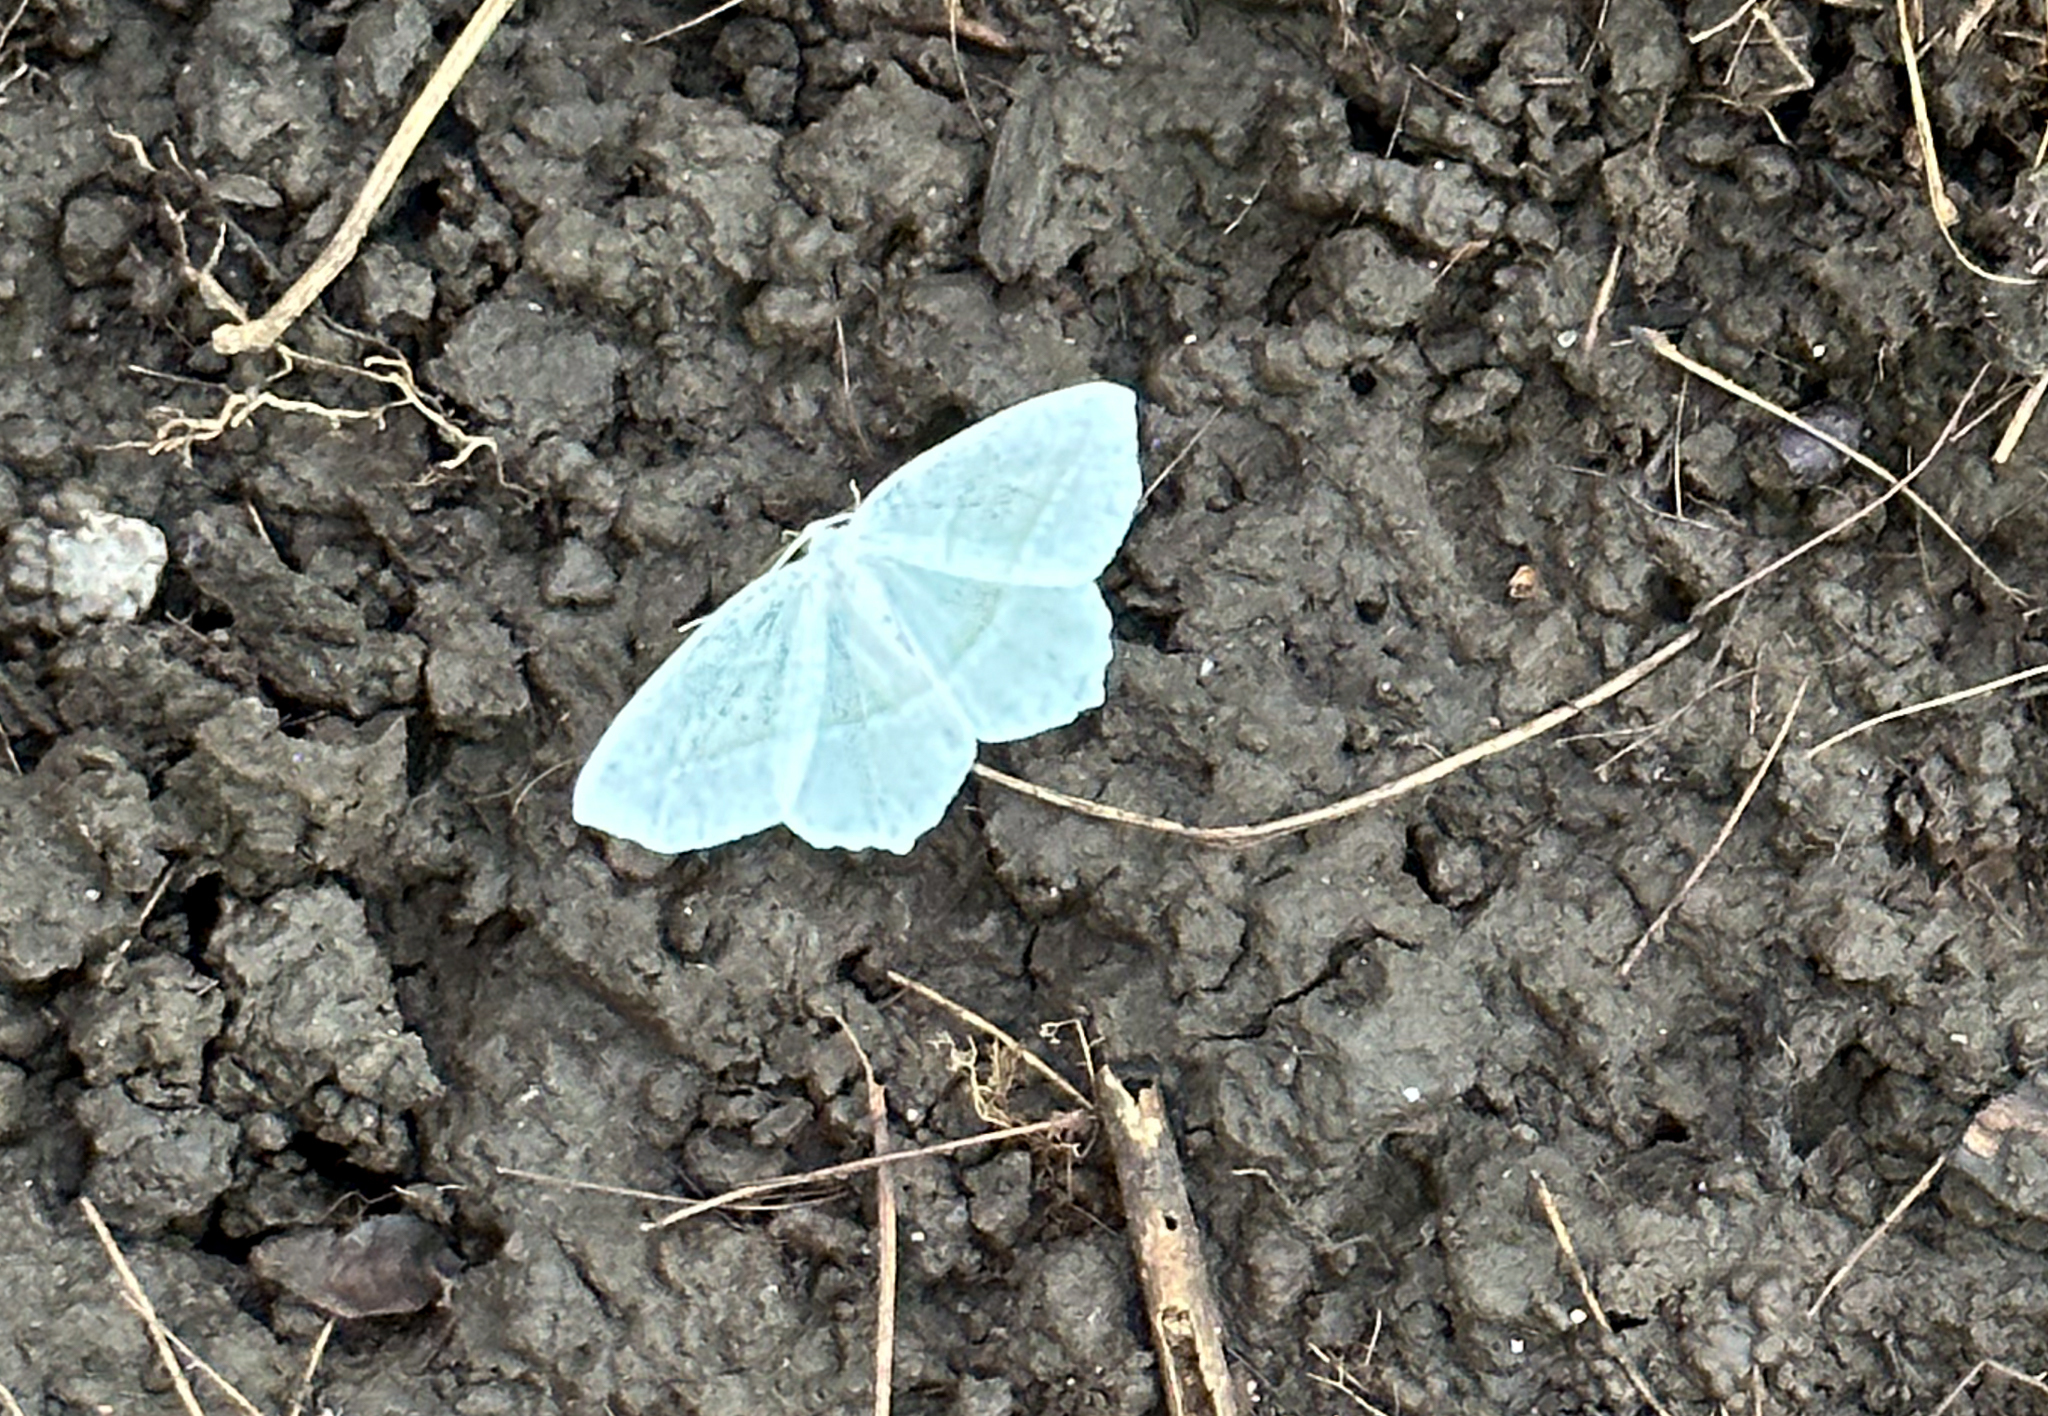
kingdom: Animalia
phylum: Arthropoda
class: Insecta
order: Lepidoptera
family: Geometridae
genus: Campaea
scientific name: Campaea perlata
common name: Fringed looper
